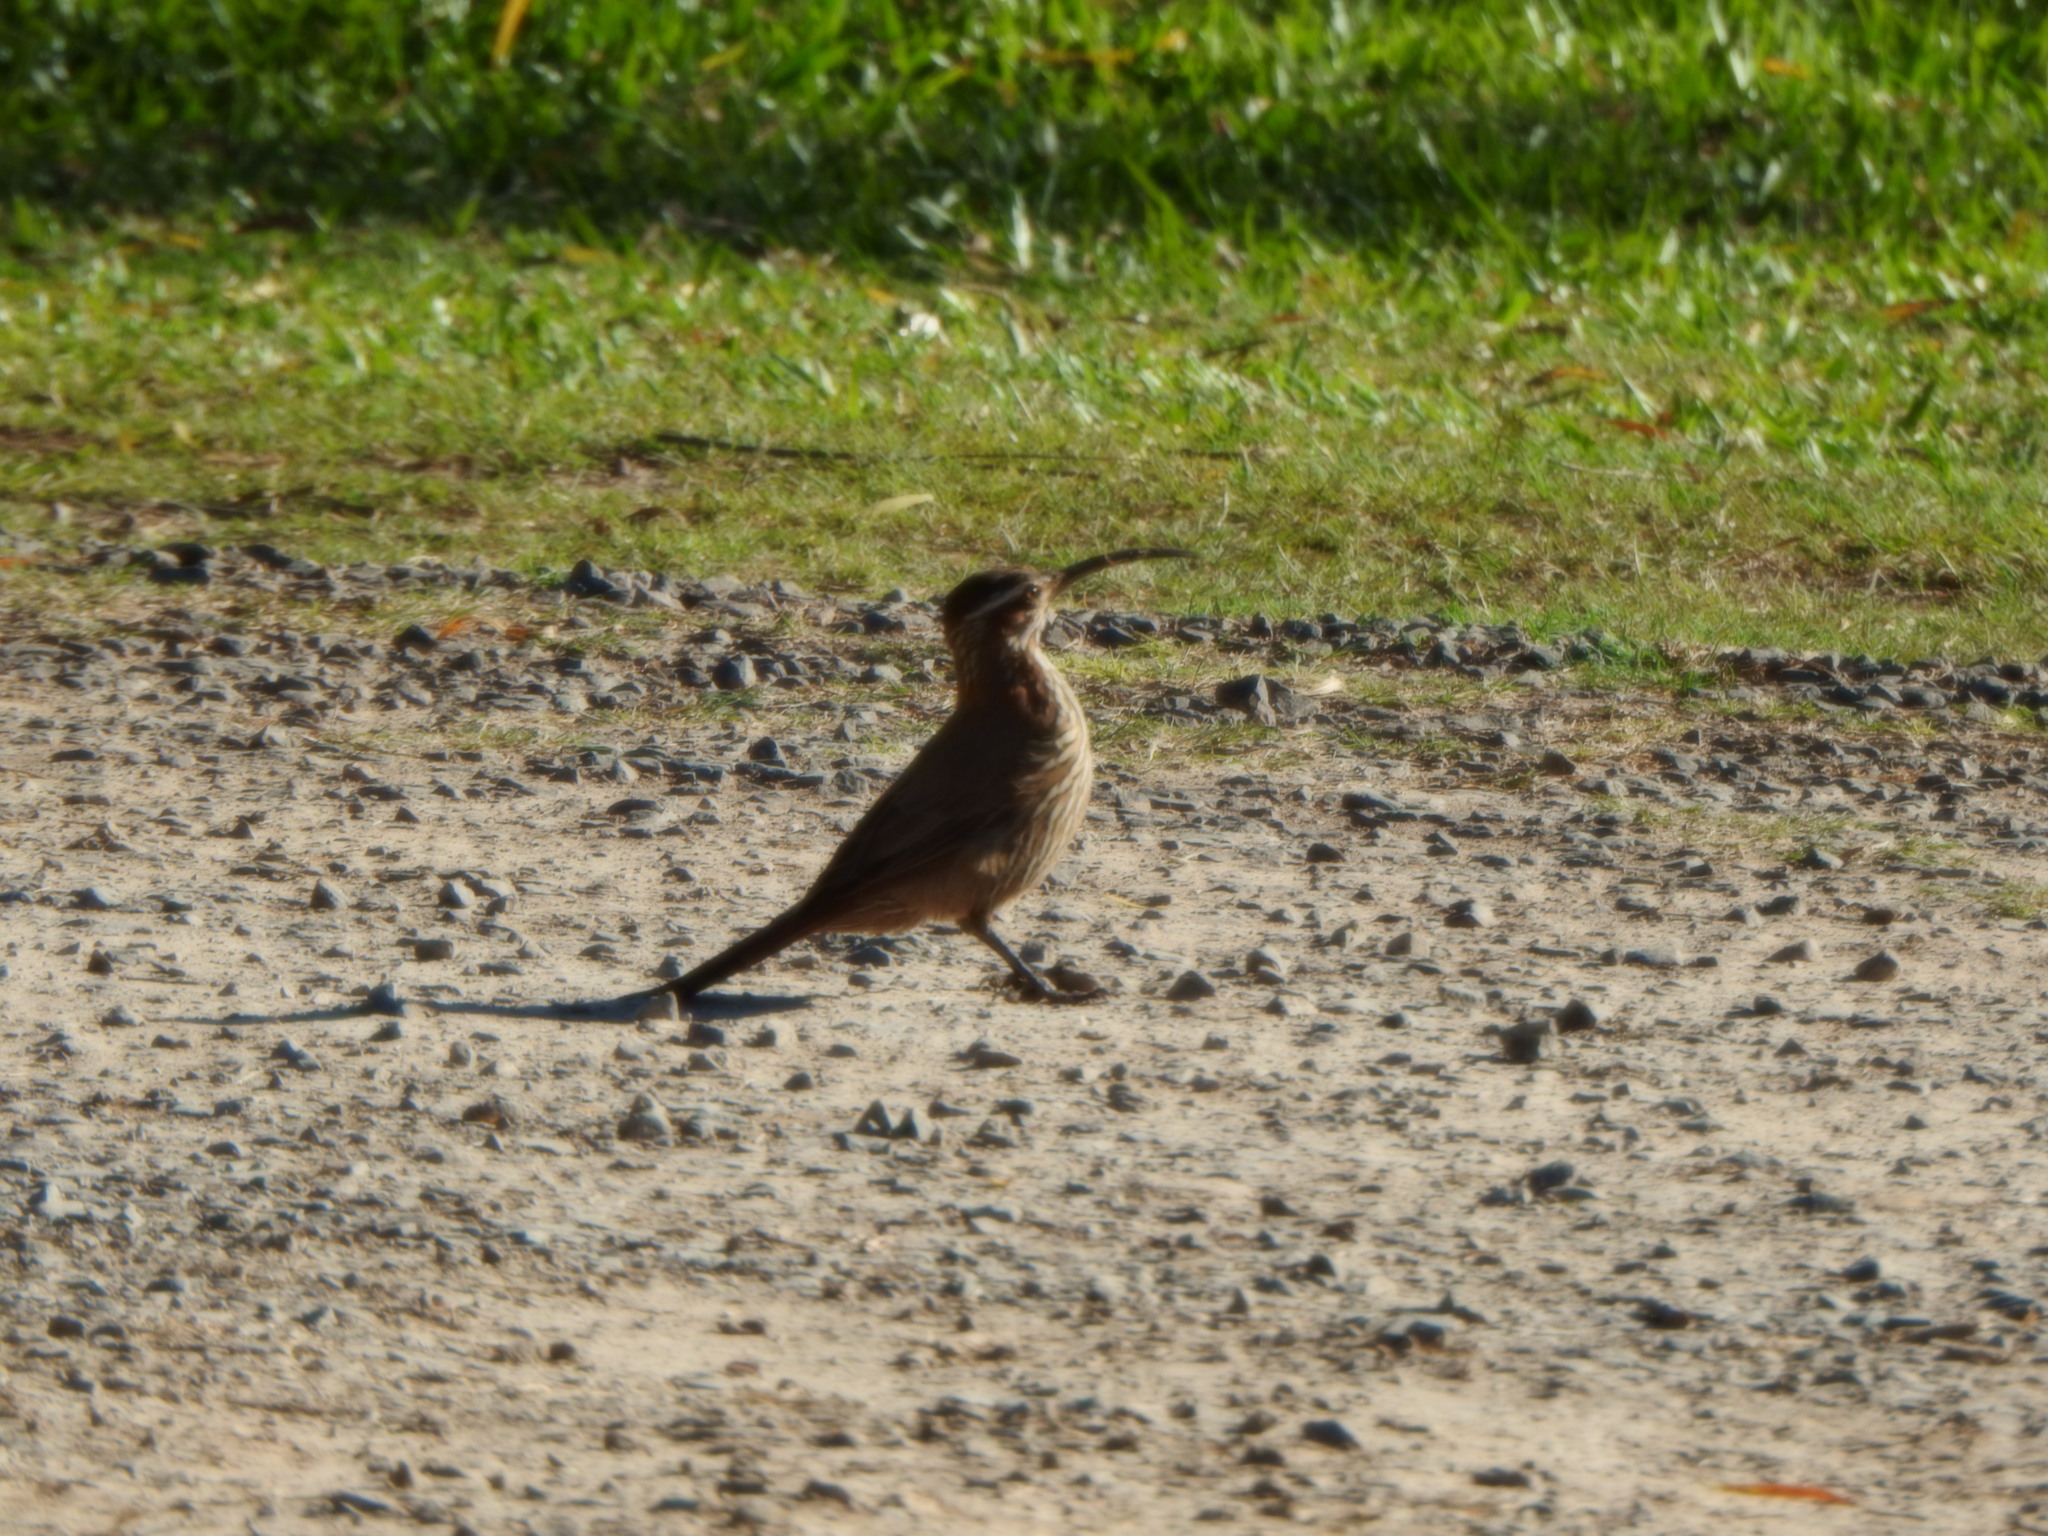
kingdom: Animalia
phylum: Chordata
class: Aves
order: Passeriformes
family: Furnariidae
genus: Drymornis
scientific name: Drymornis bridgesii
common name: Scimitar-billed woodcreeper
